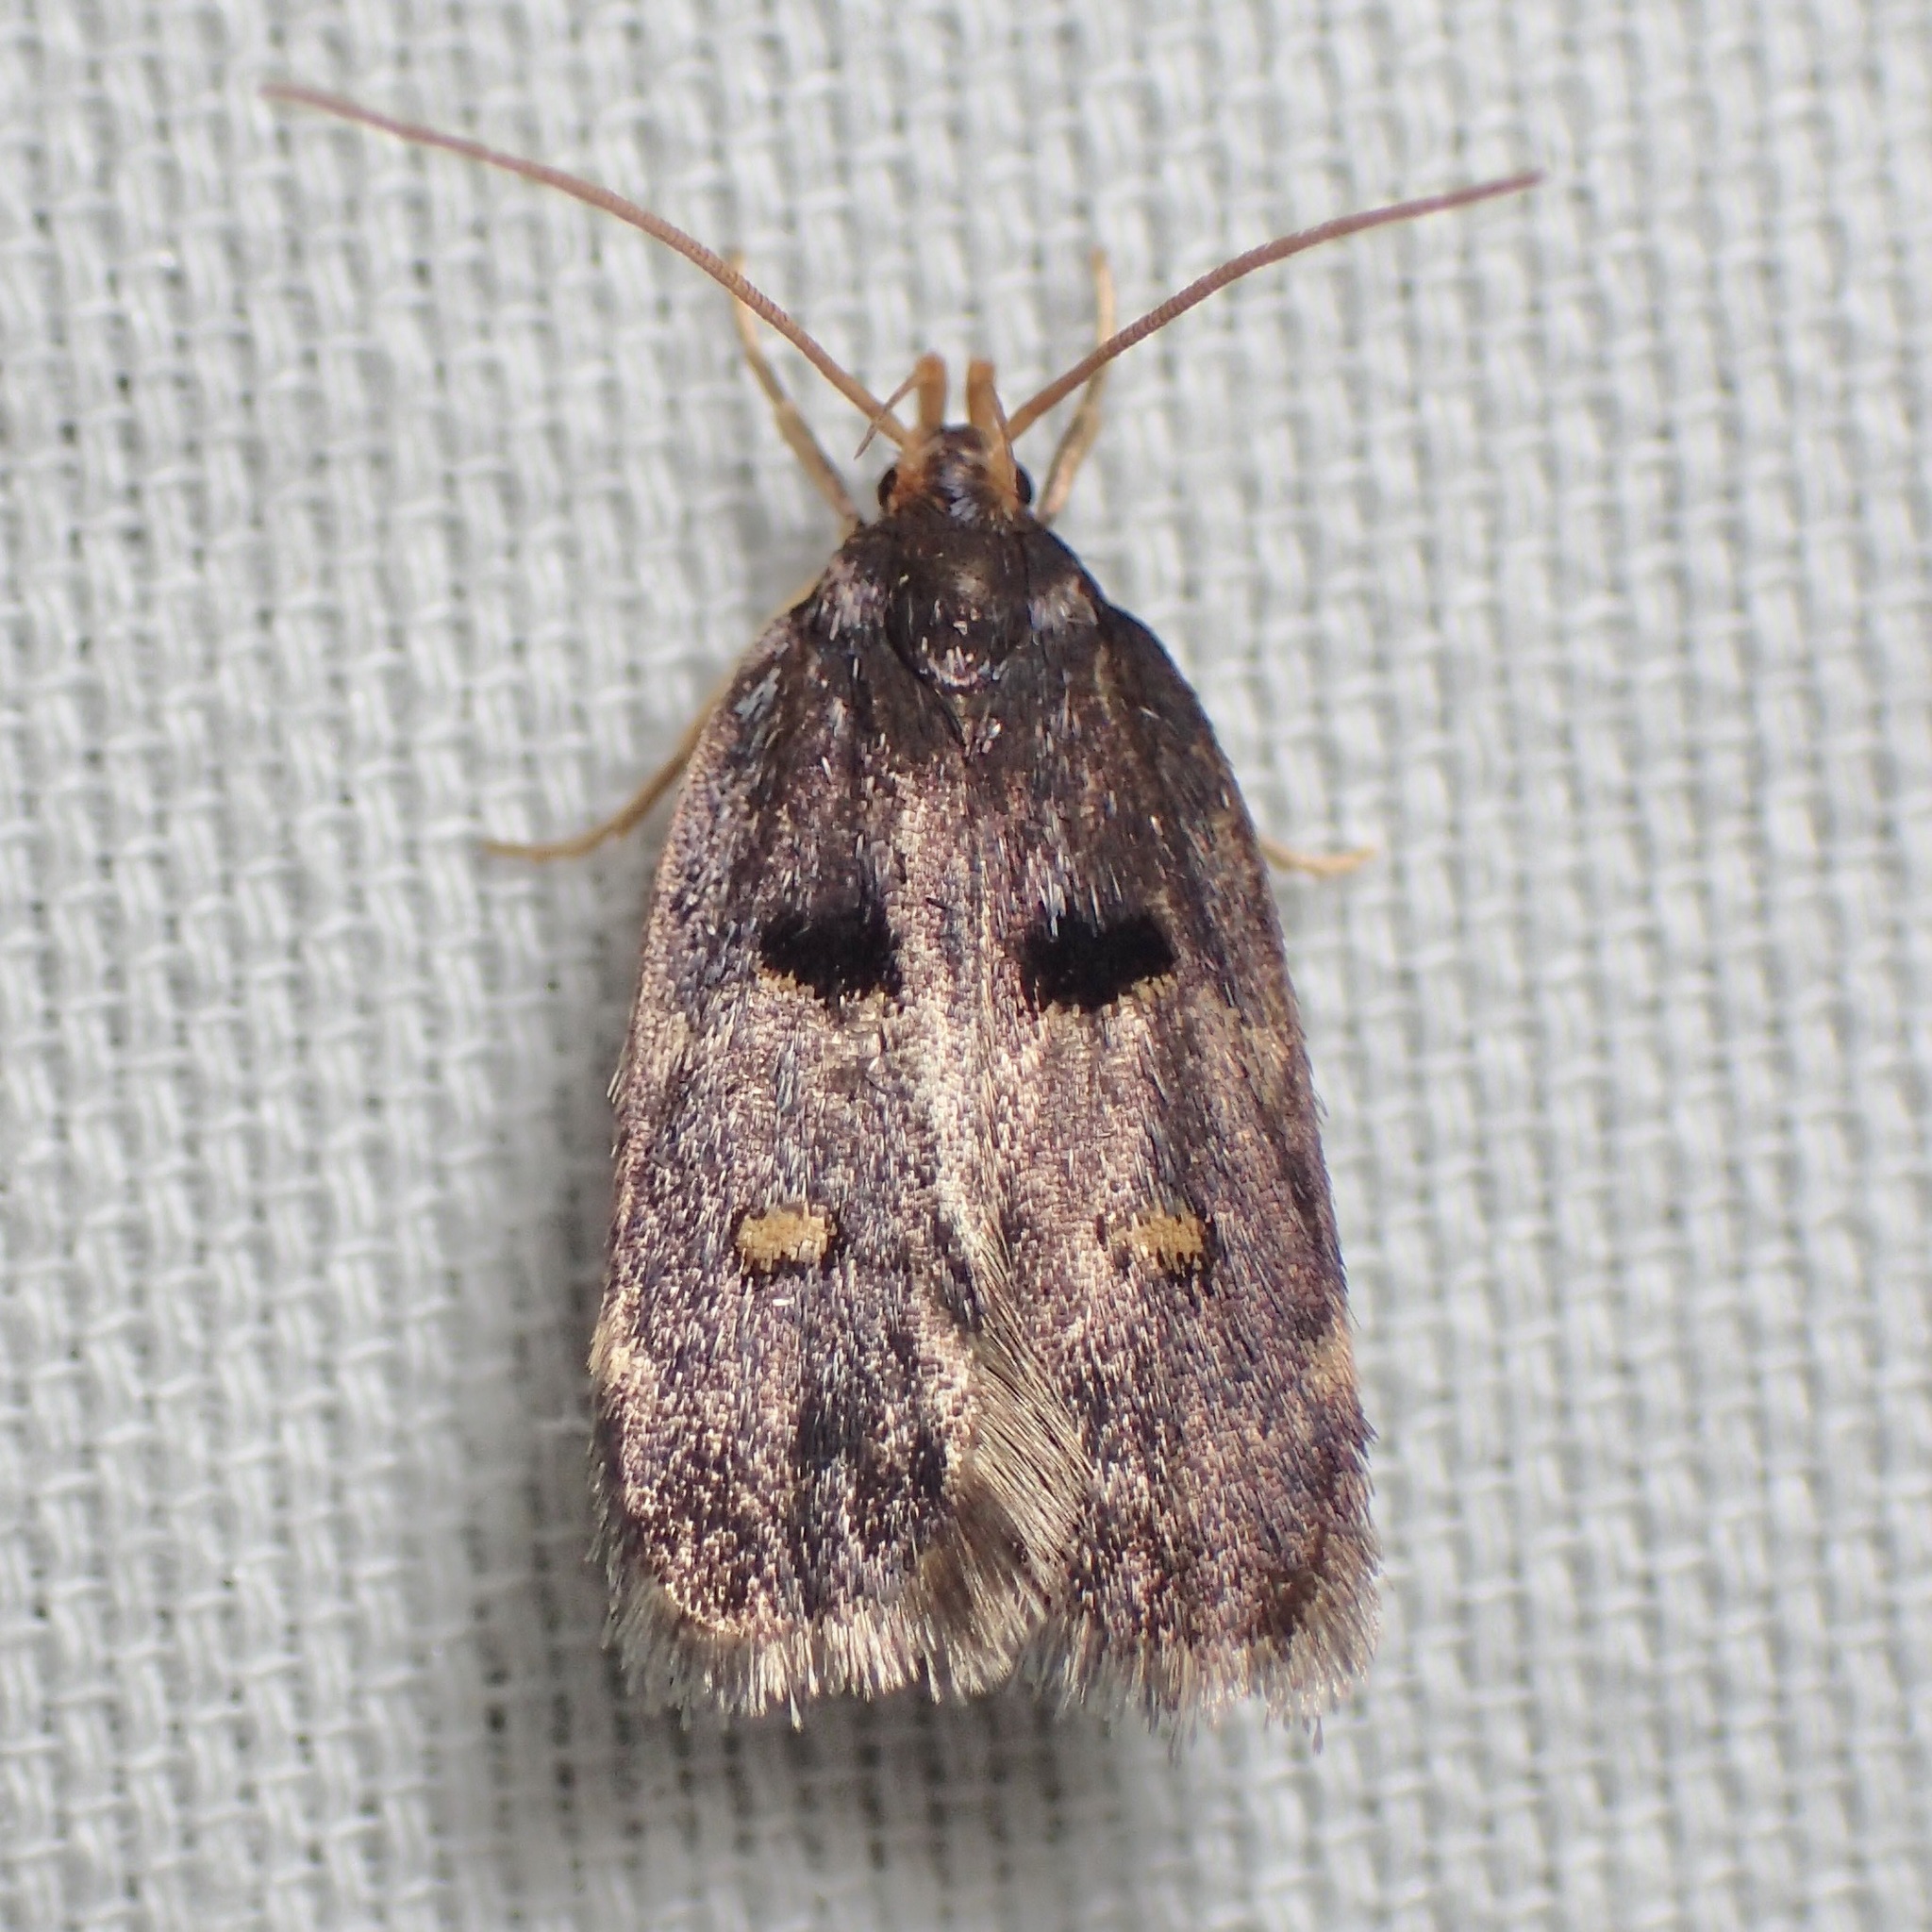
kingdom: Animalia
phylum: Arthropoda
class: Insecta
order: Lepidoptera
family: Xyloryctidae
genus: Cophomantella
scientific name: Cophomantella lychnocentra
